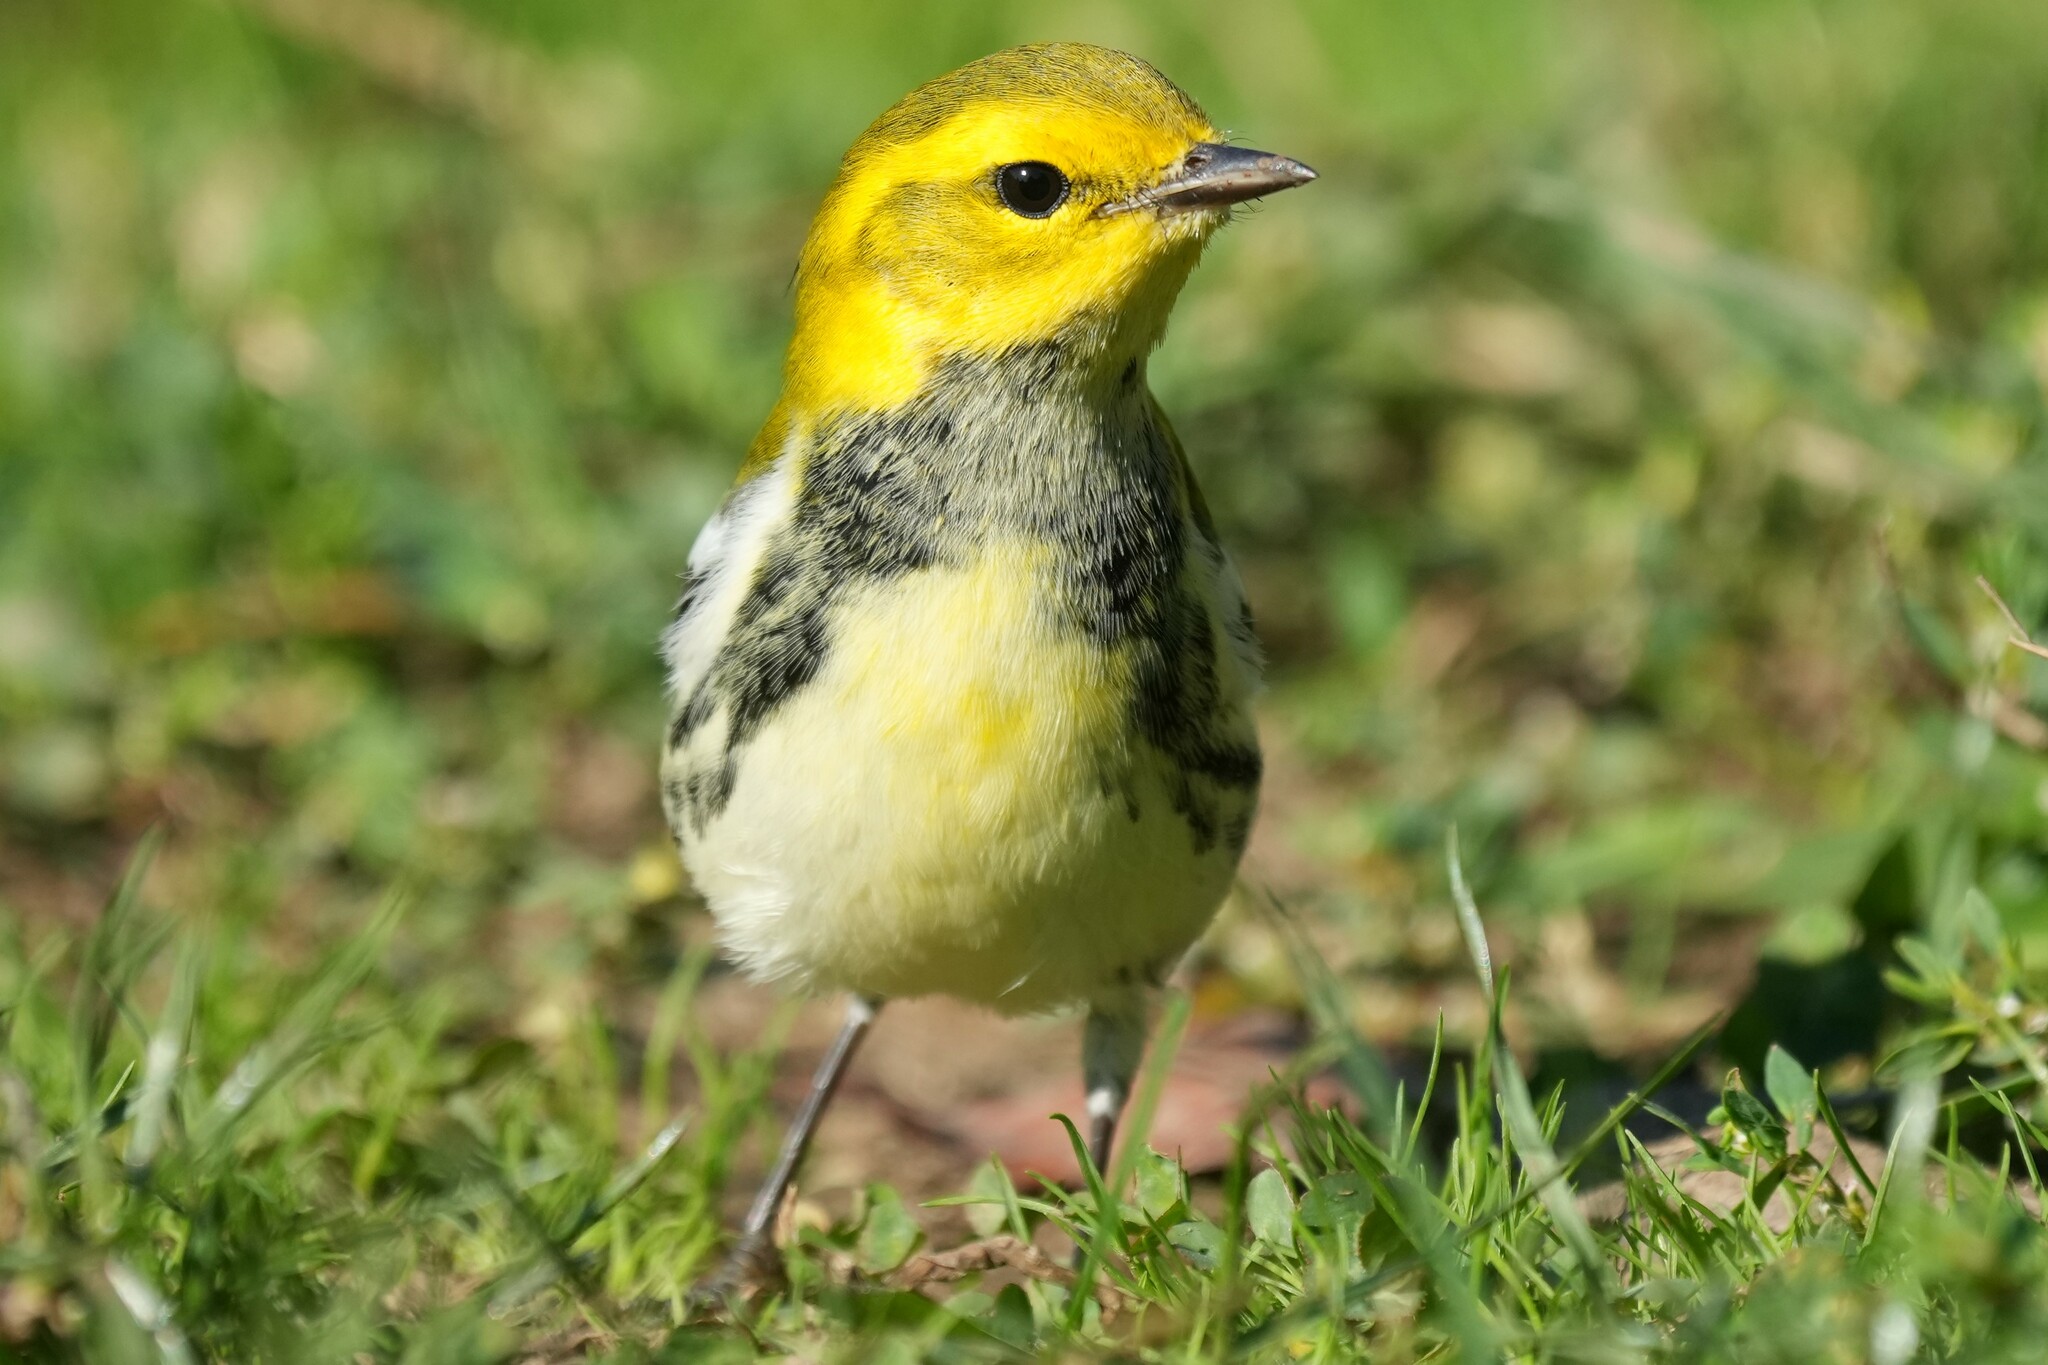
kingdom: Animalia
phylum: Chordata
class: Aves
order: Passeriformes
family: Parulidae
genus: Setophaga
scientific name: Setophaga virens
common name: Black-throated green warbler
